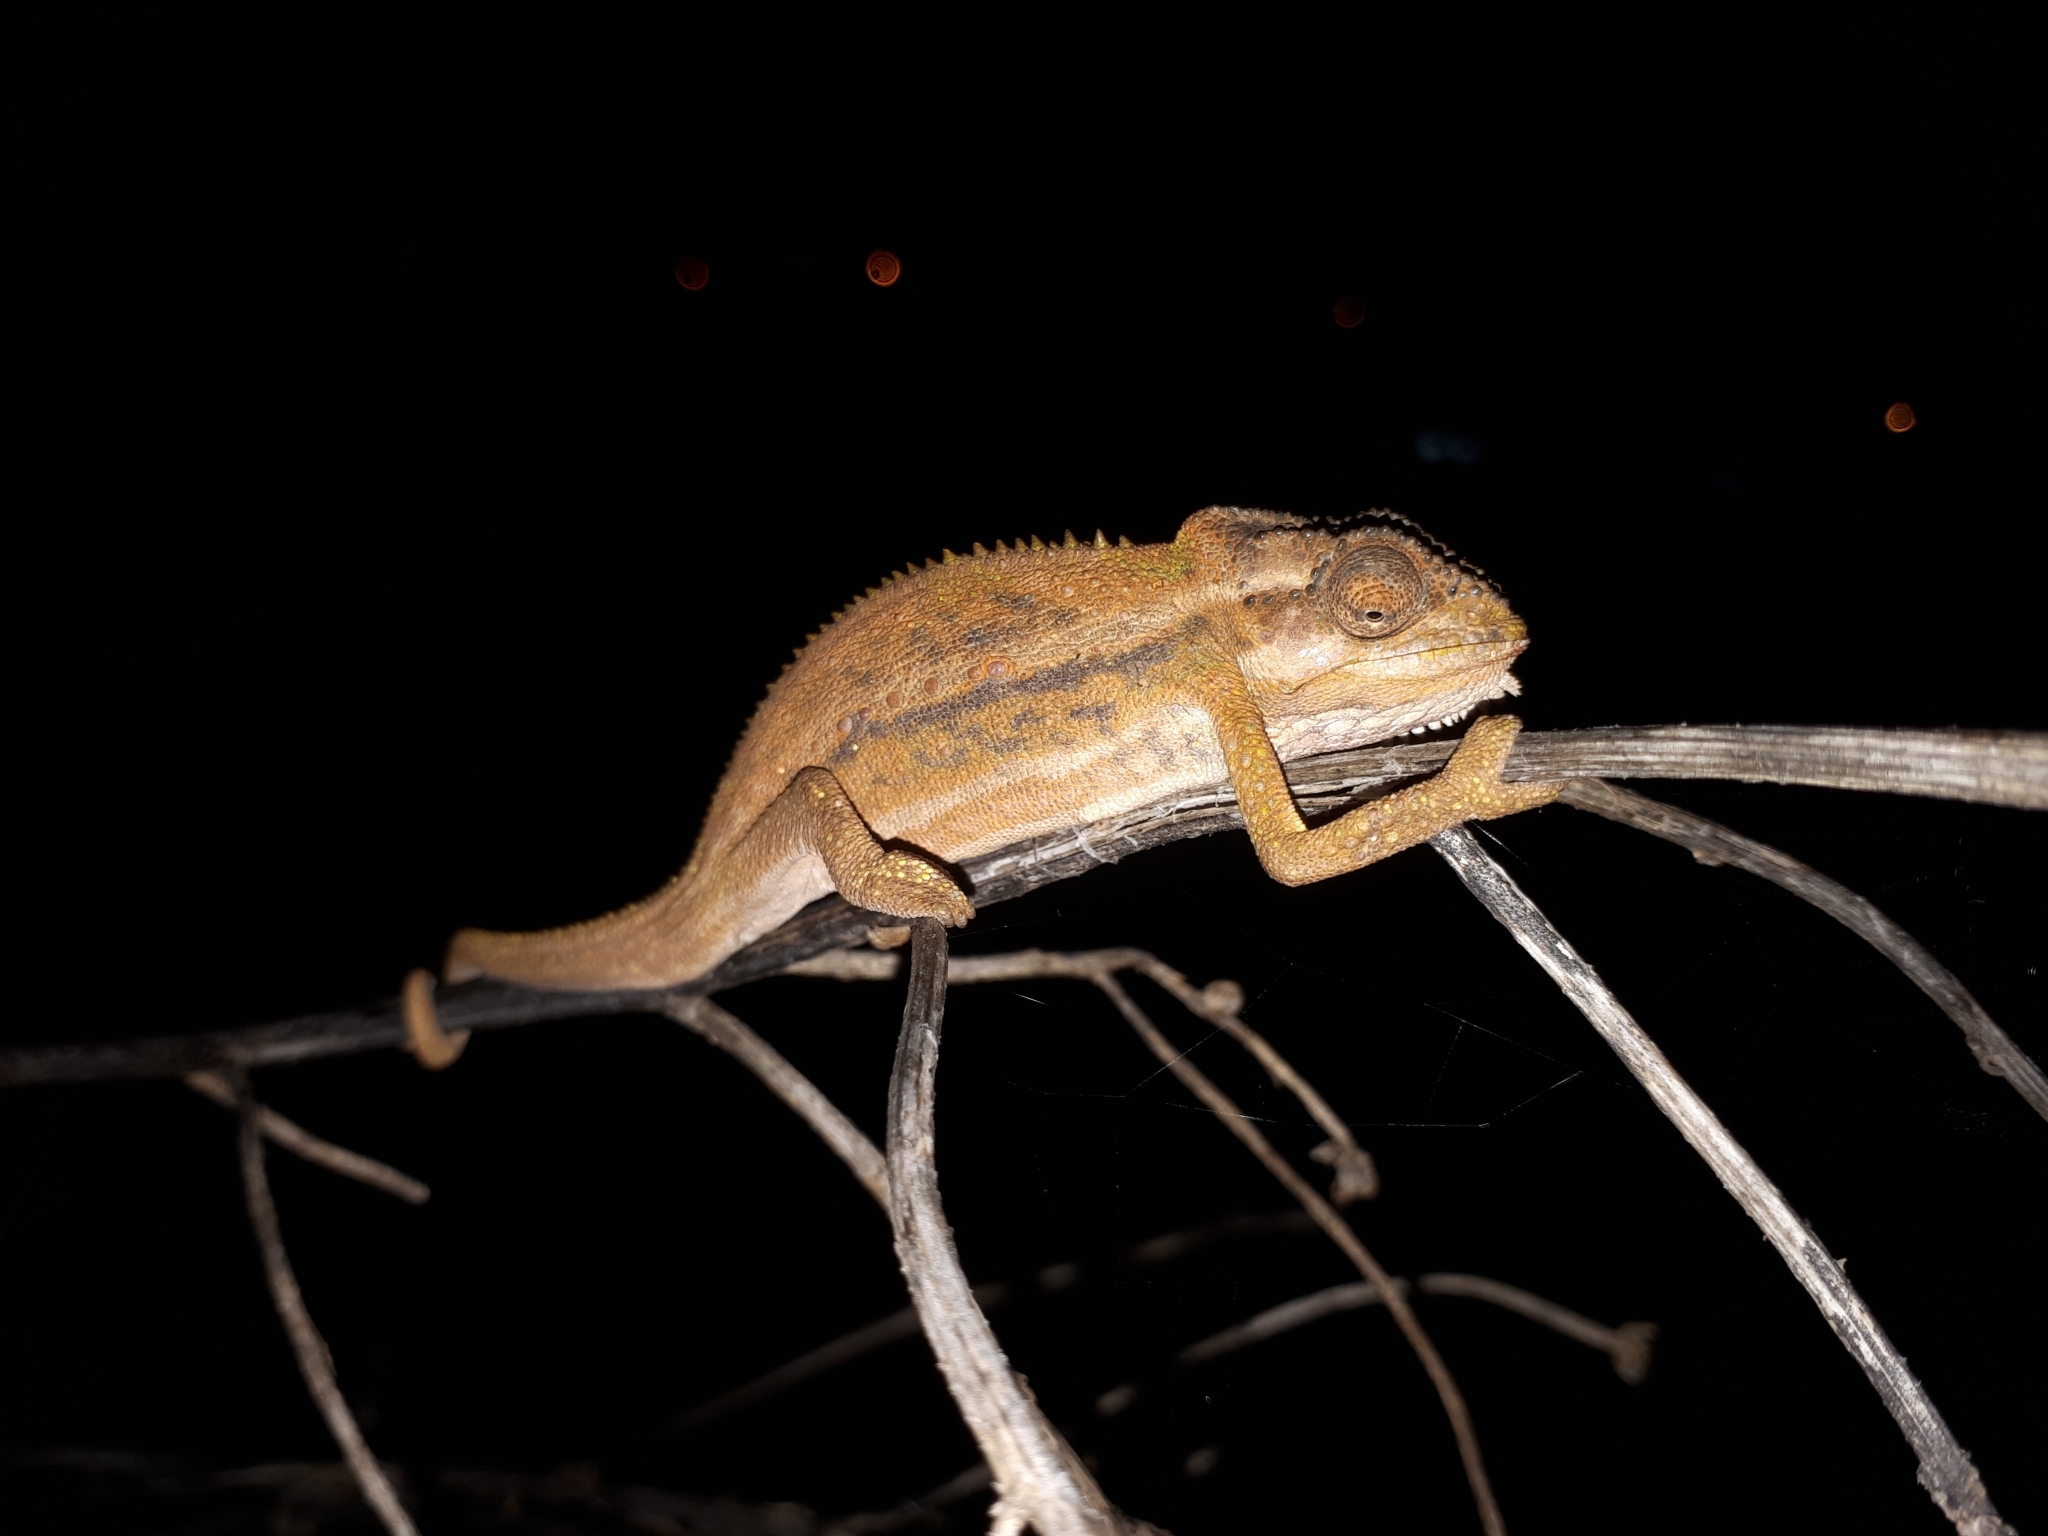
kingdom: Animalia
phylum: Chordata
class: Squamata
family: Chamaeleonidae
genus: Bradypodion
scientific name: Bradypodion pumilum
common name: Cape dwarf chameleon
